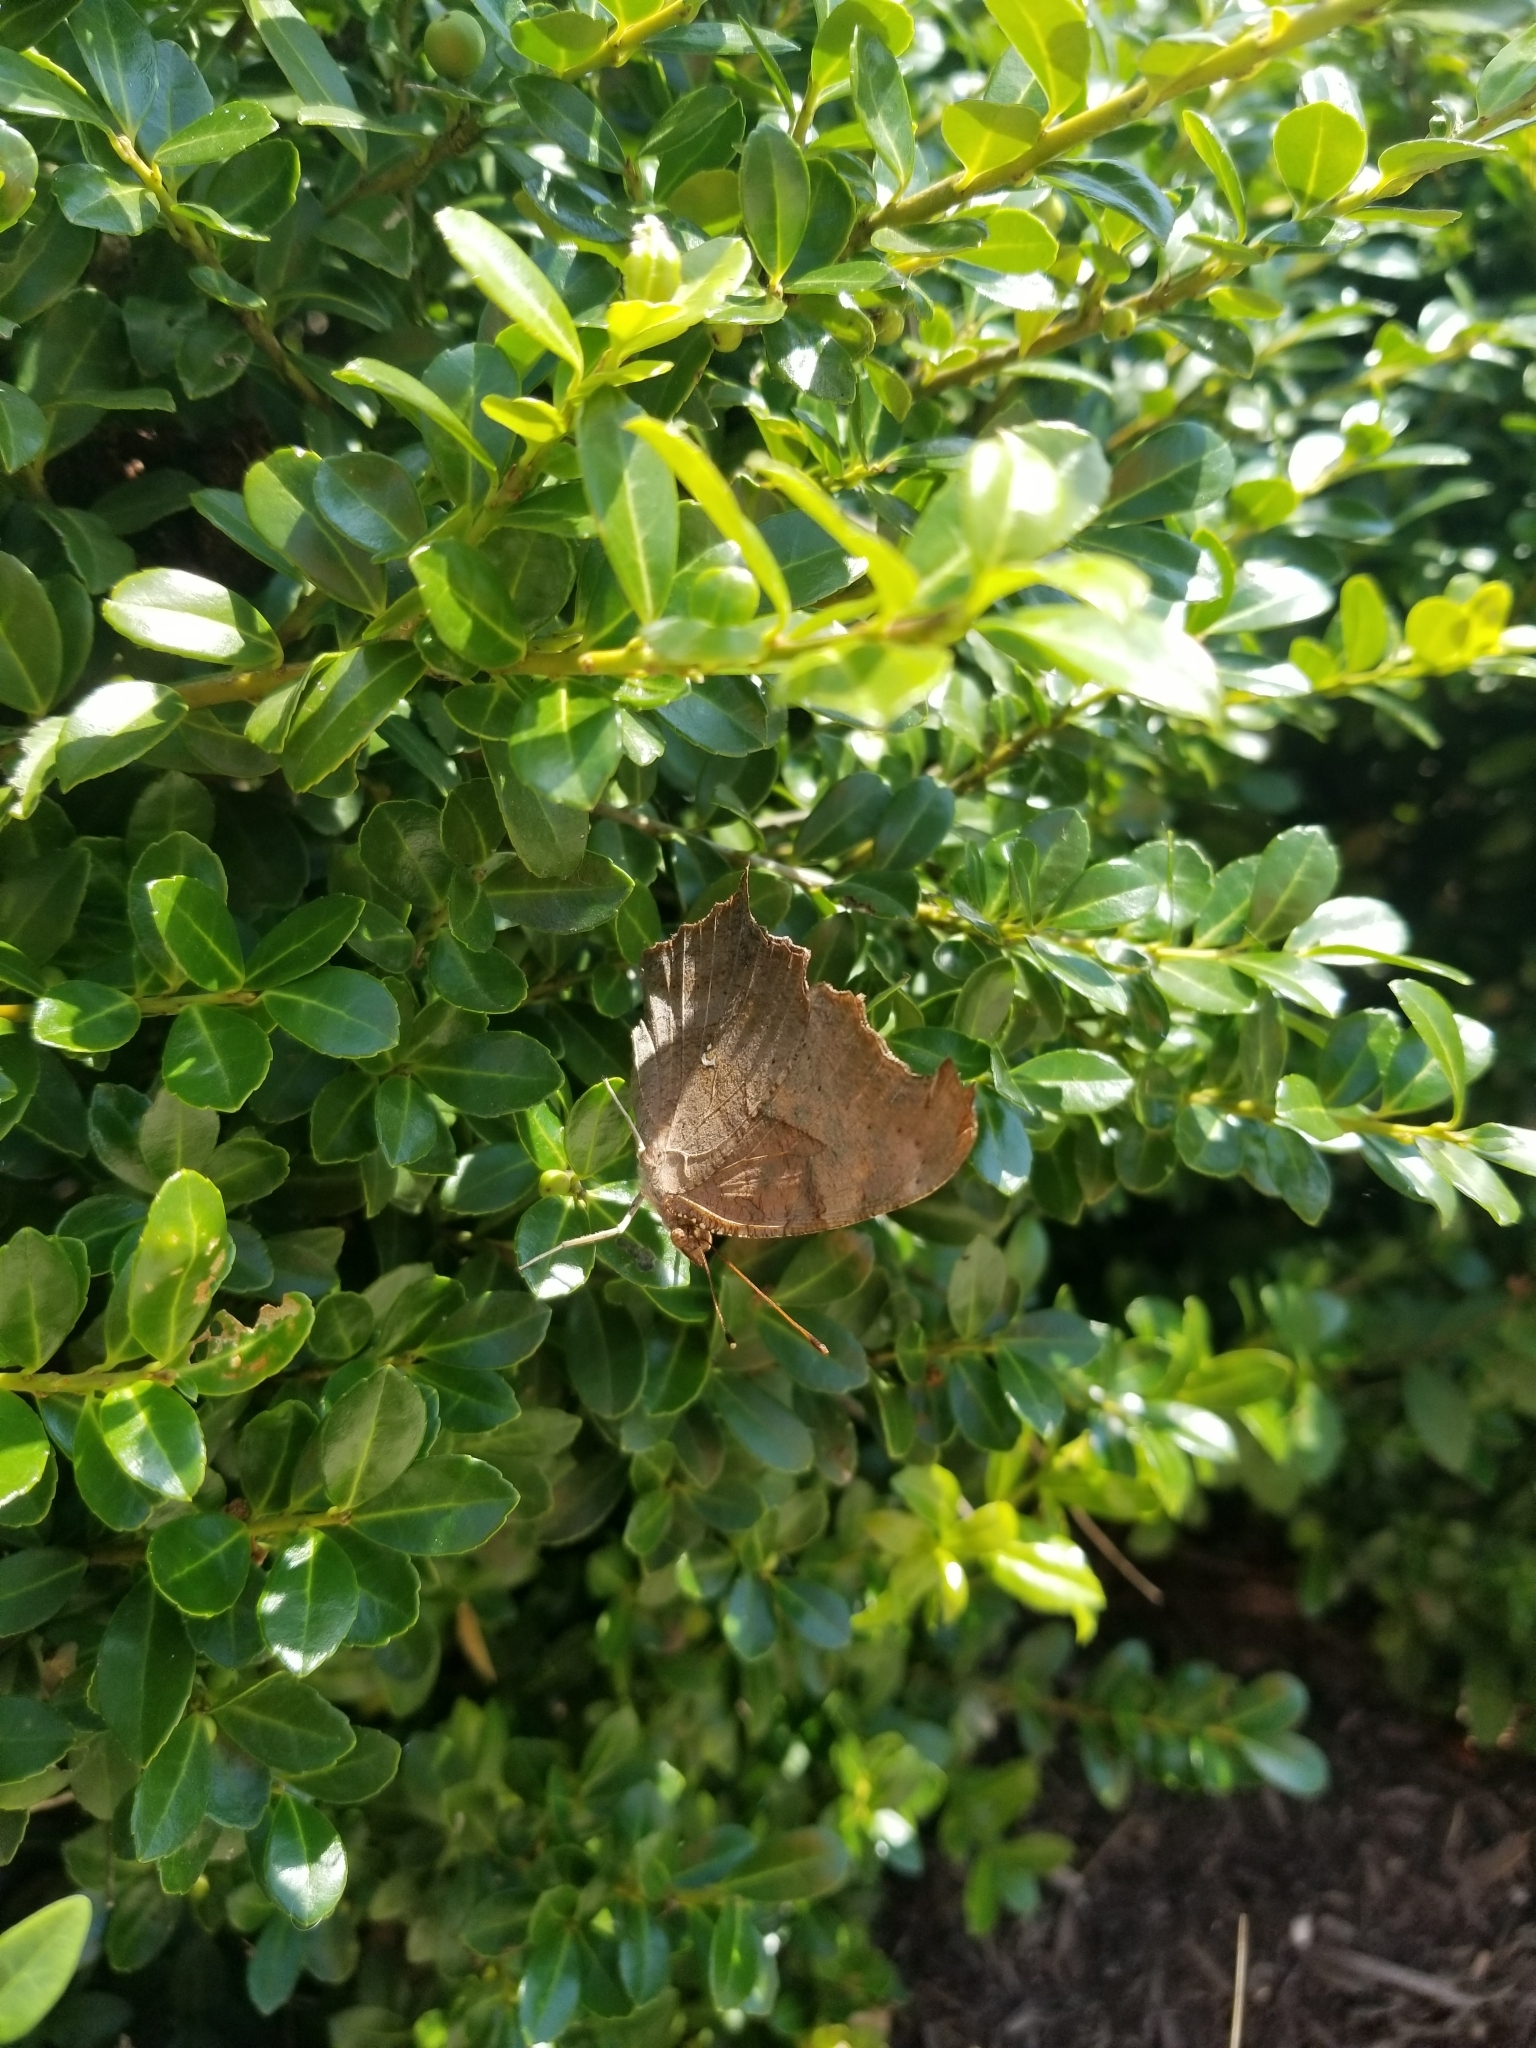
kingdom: Animalia
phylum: Arthropoda
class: Insecta
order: Lepidoptera
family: Nymphalidae
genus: Polygonia
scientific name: Polygonia interrogationis
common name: Question mark
